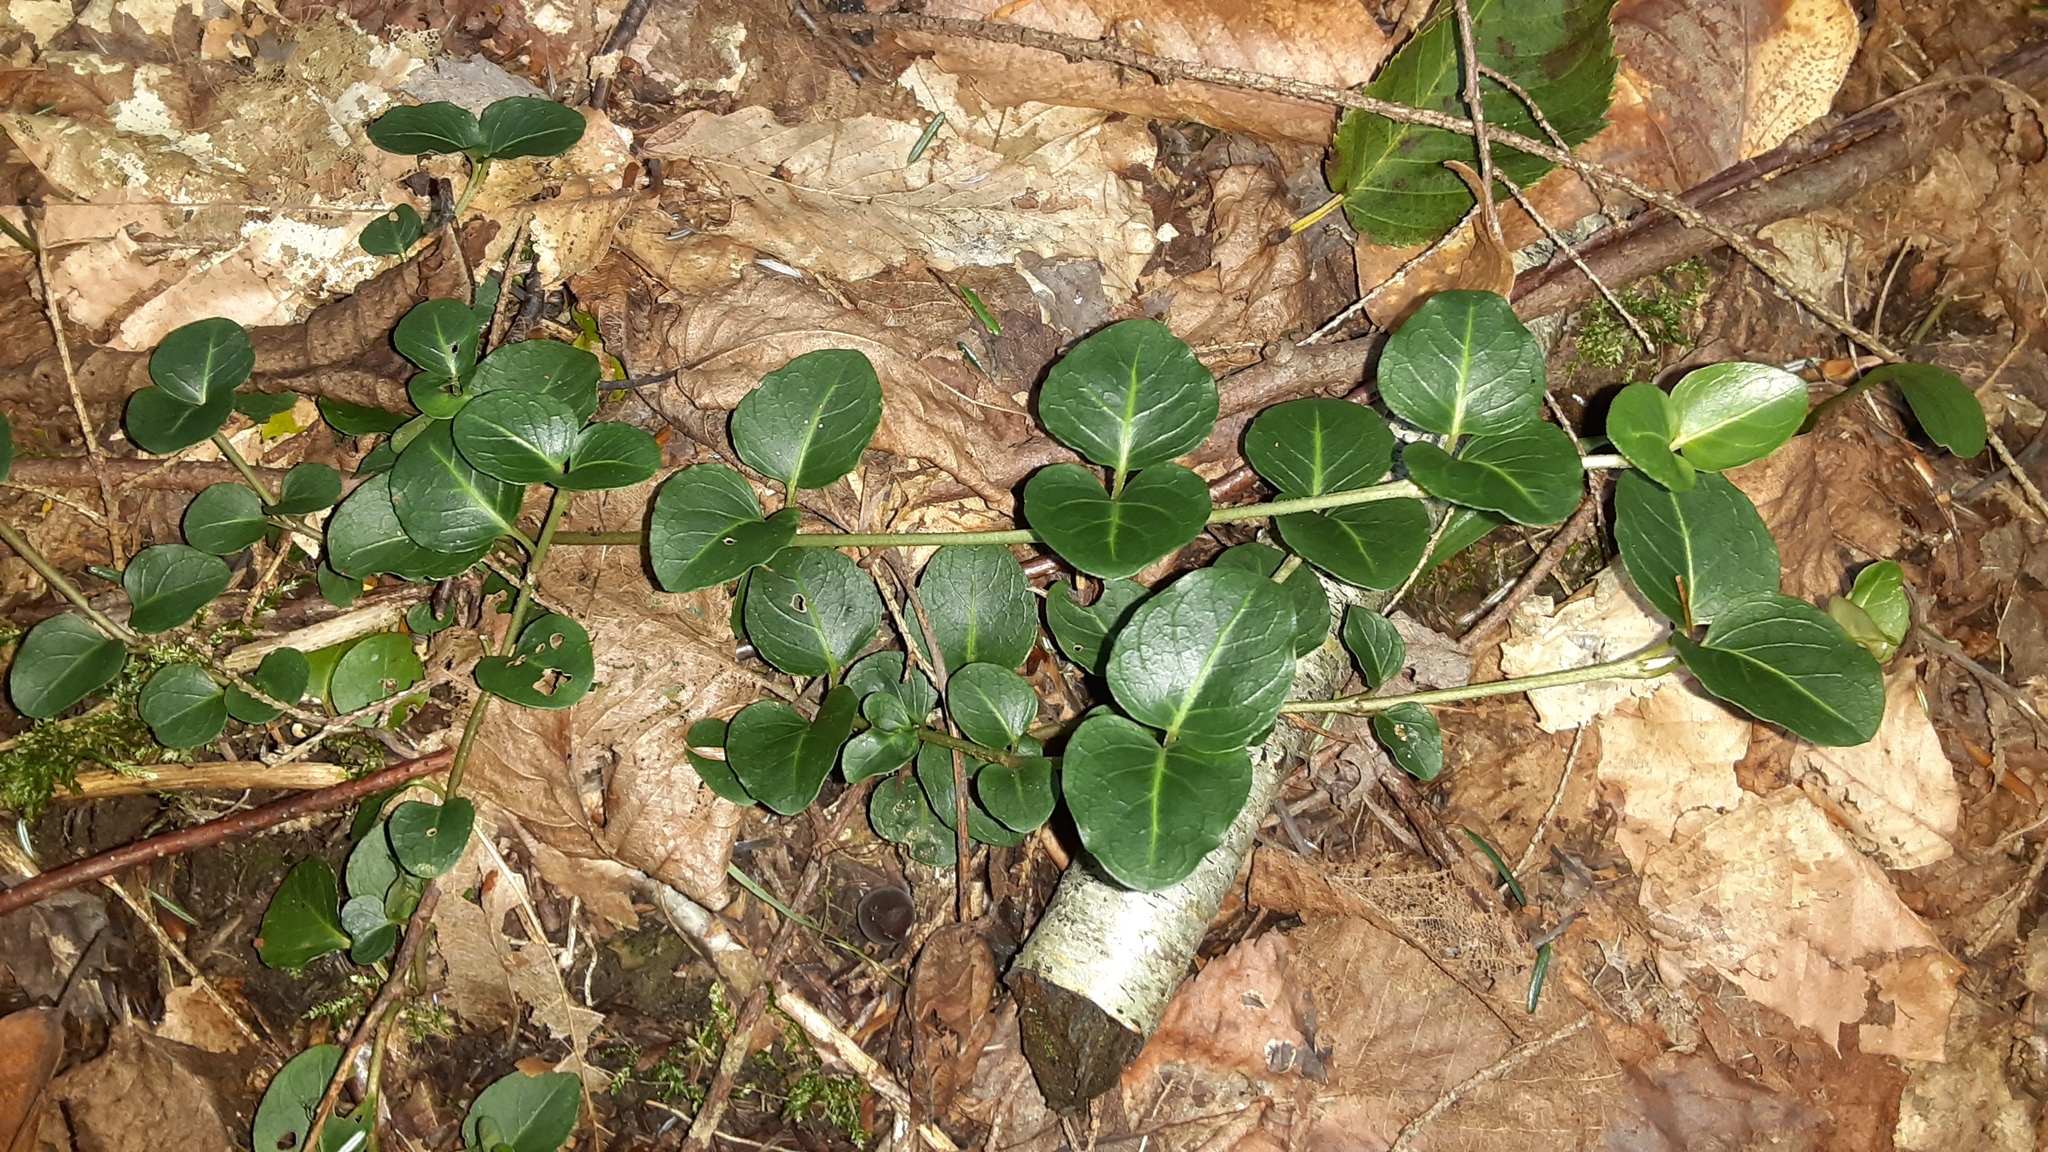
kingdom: Plantae
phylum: Tracheophyta
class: Magnoliopsida
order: Gentianales
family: Rubiaceae
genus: Mitchella
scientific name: Mitchella repens
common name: Partridge-berry
